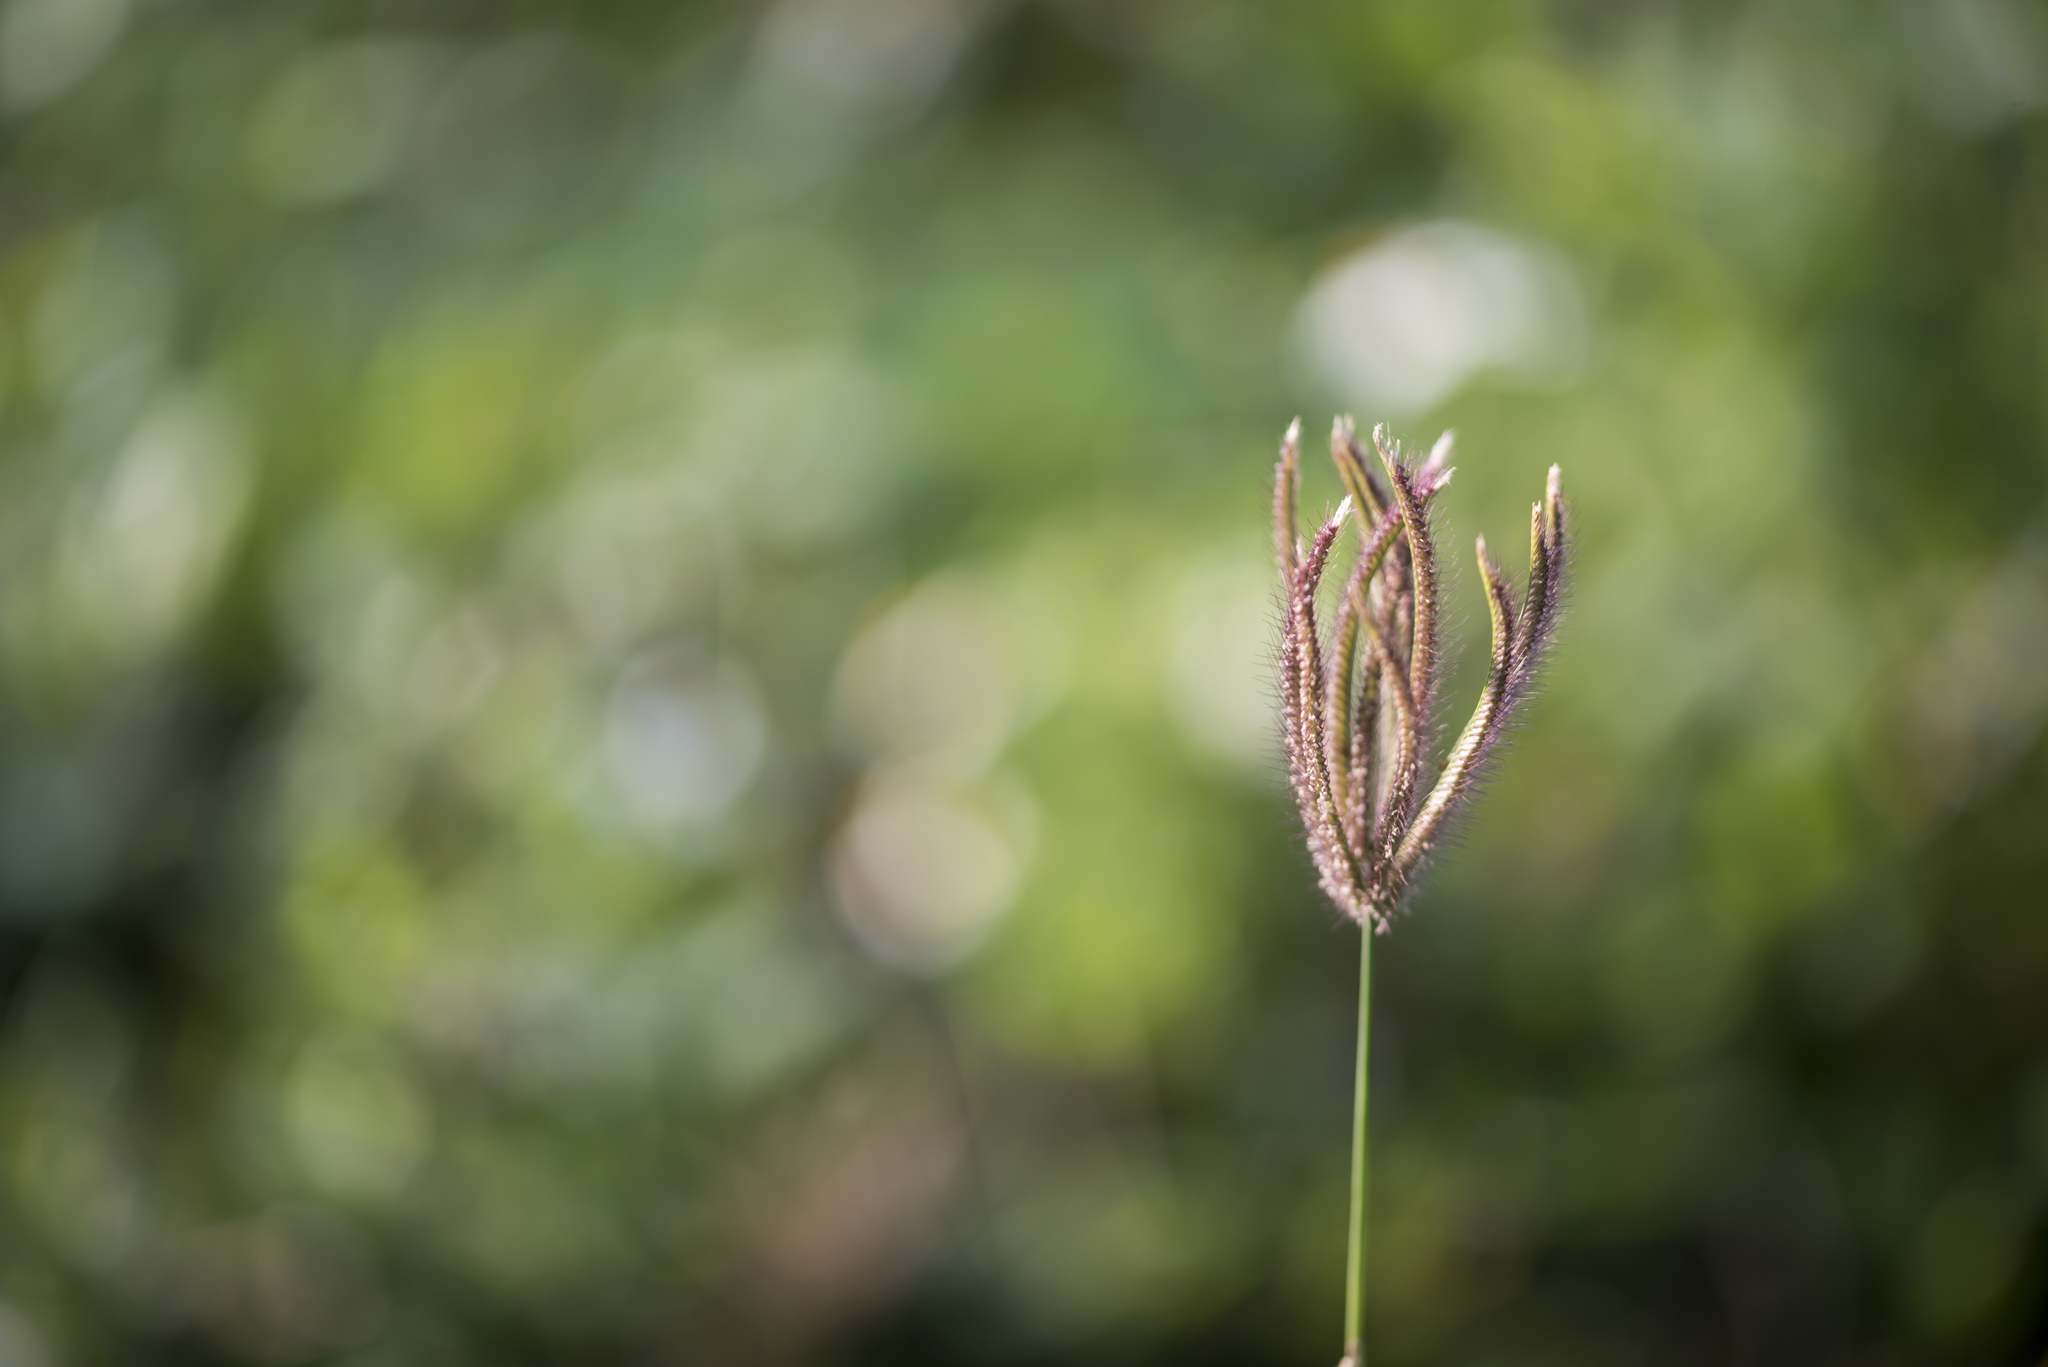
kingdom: Plantae
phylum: Tracheophyta
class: Liliopsida
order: Poales
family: Poaceae
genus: Chloris
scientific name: Chloris barbata
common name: Swollen fingergrass
